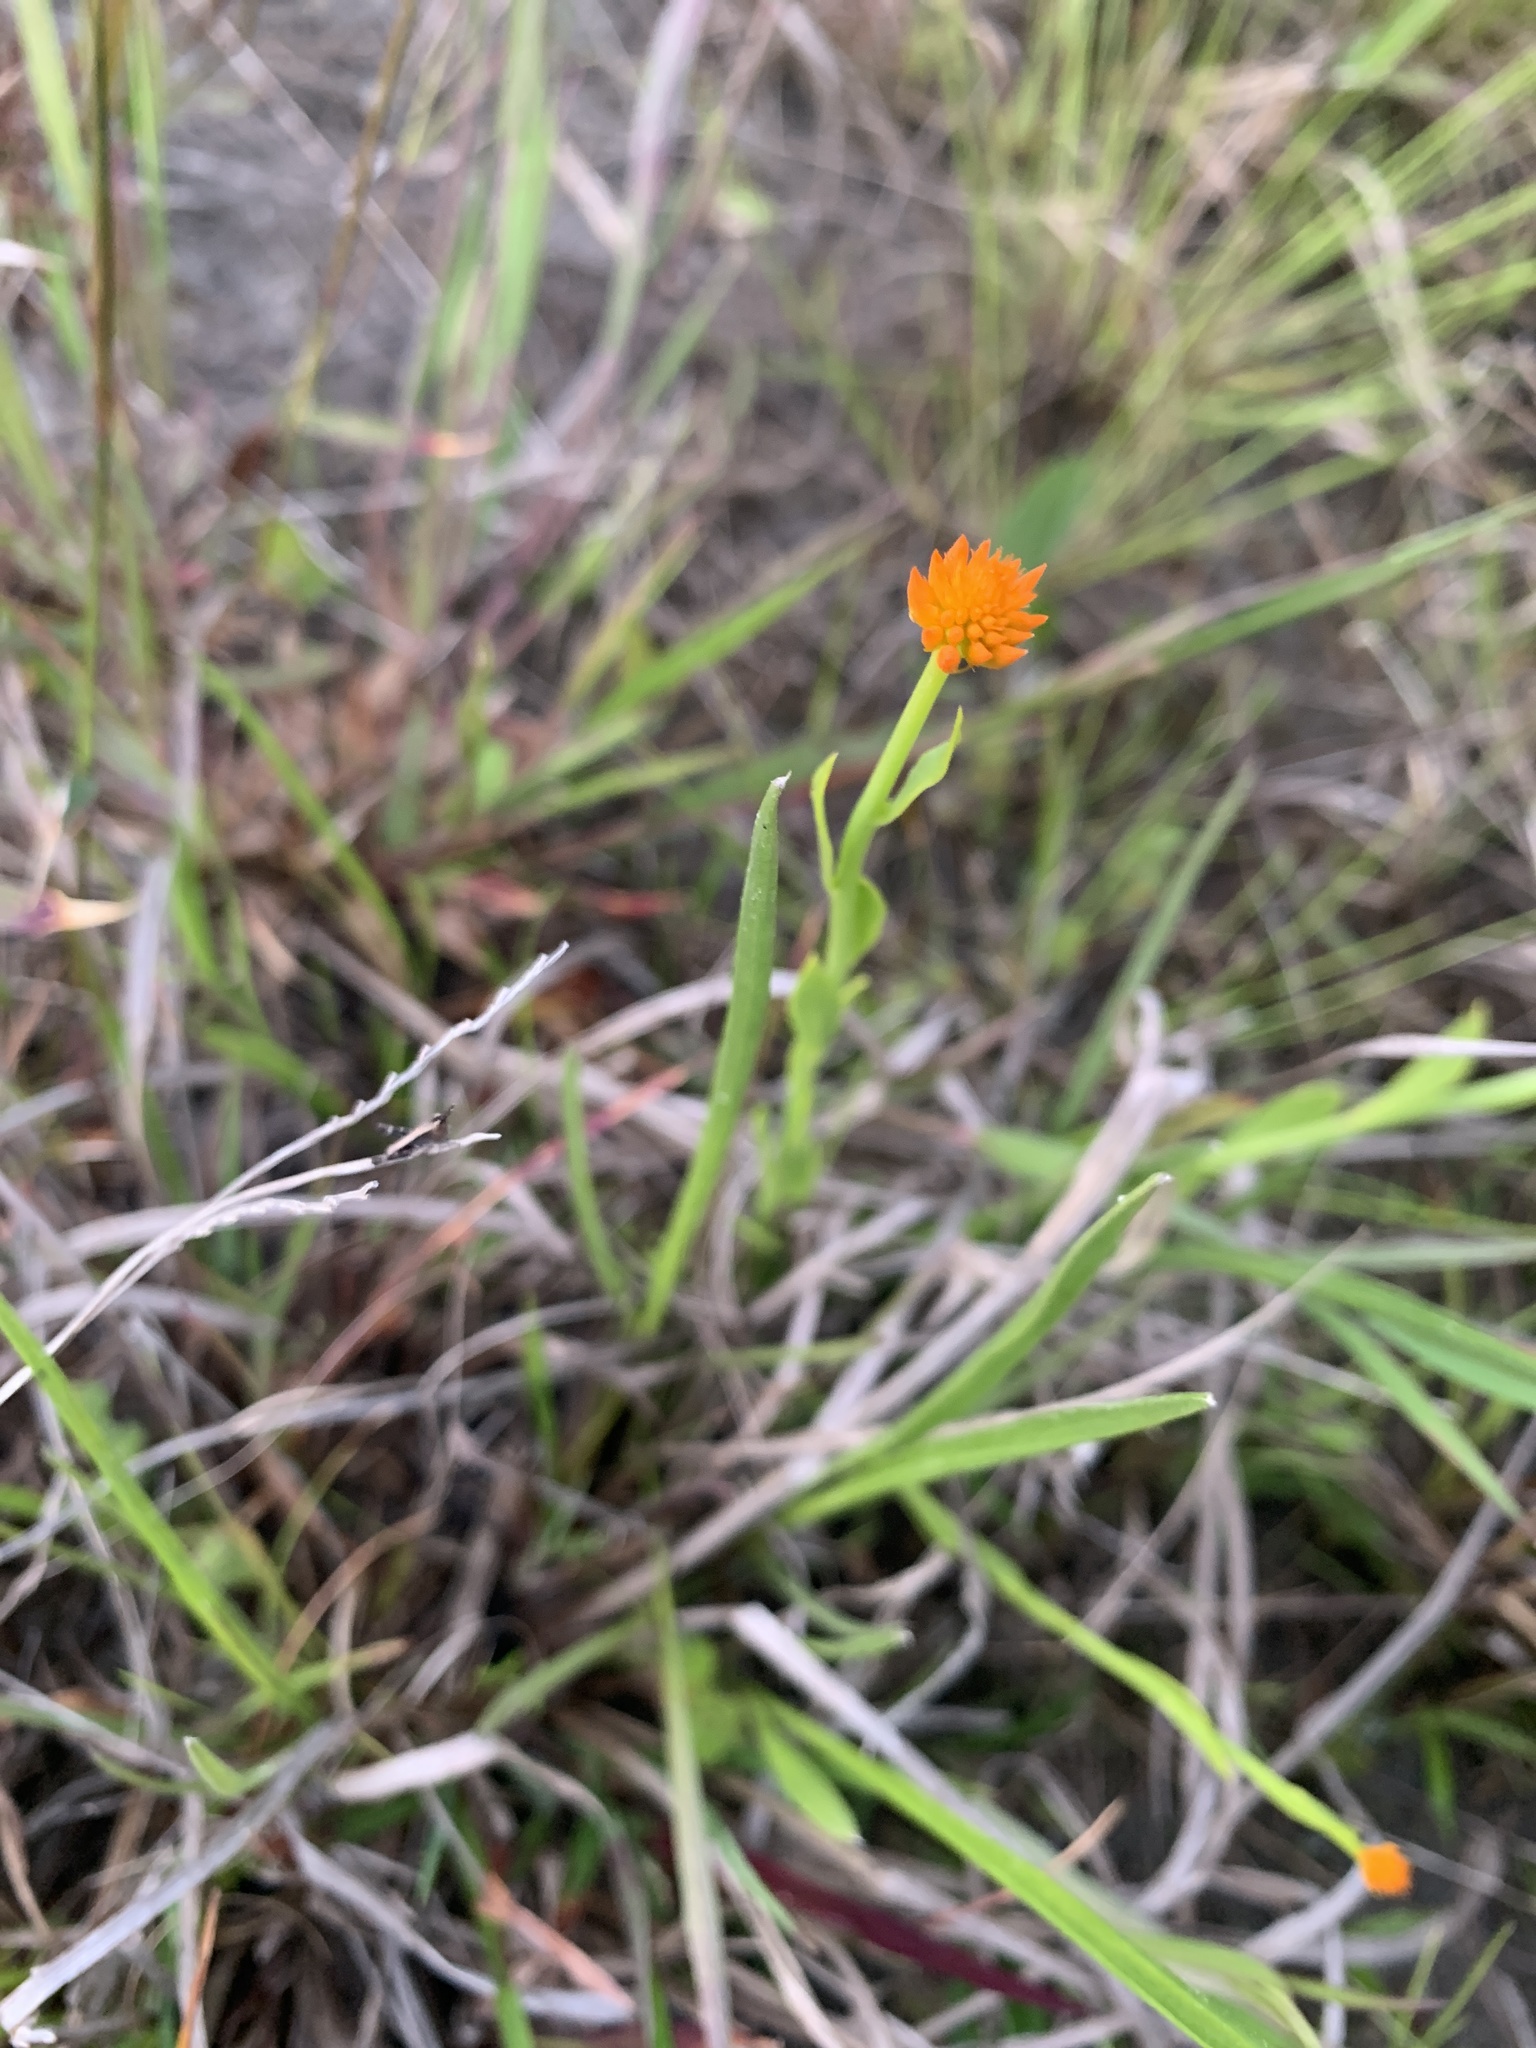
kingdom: Plantae
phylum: Tracheophyta
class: Magnoliopsida
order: Fabales
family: Polygalaceae
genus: Polygala
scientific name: Polygala lutea
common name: Orange milkwort
